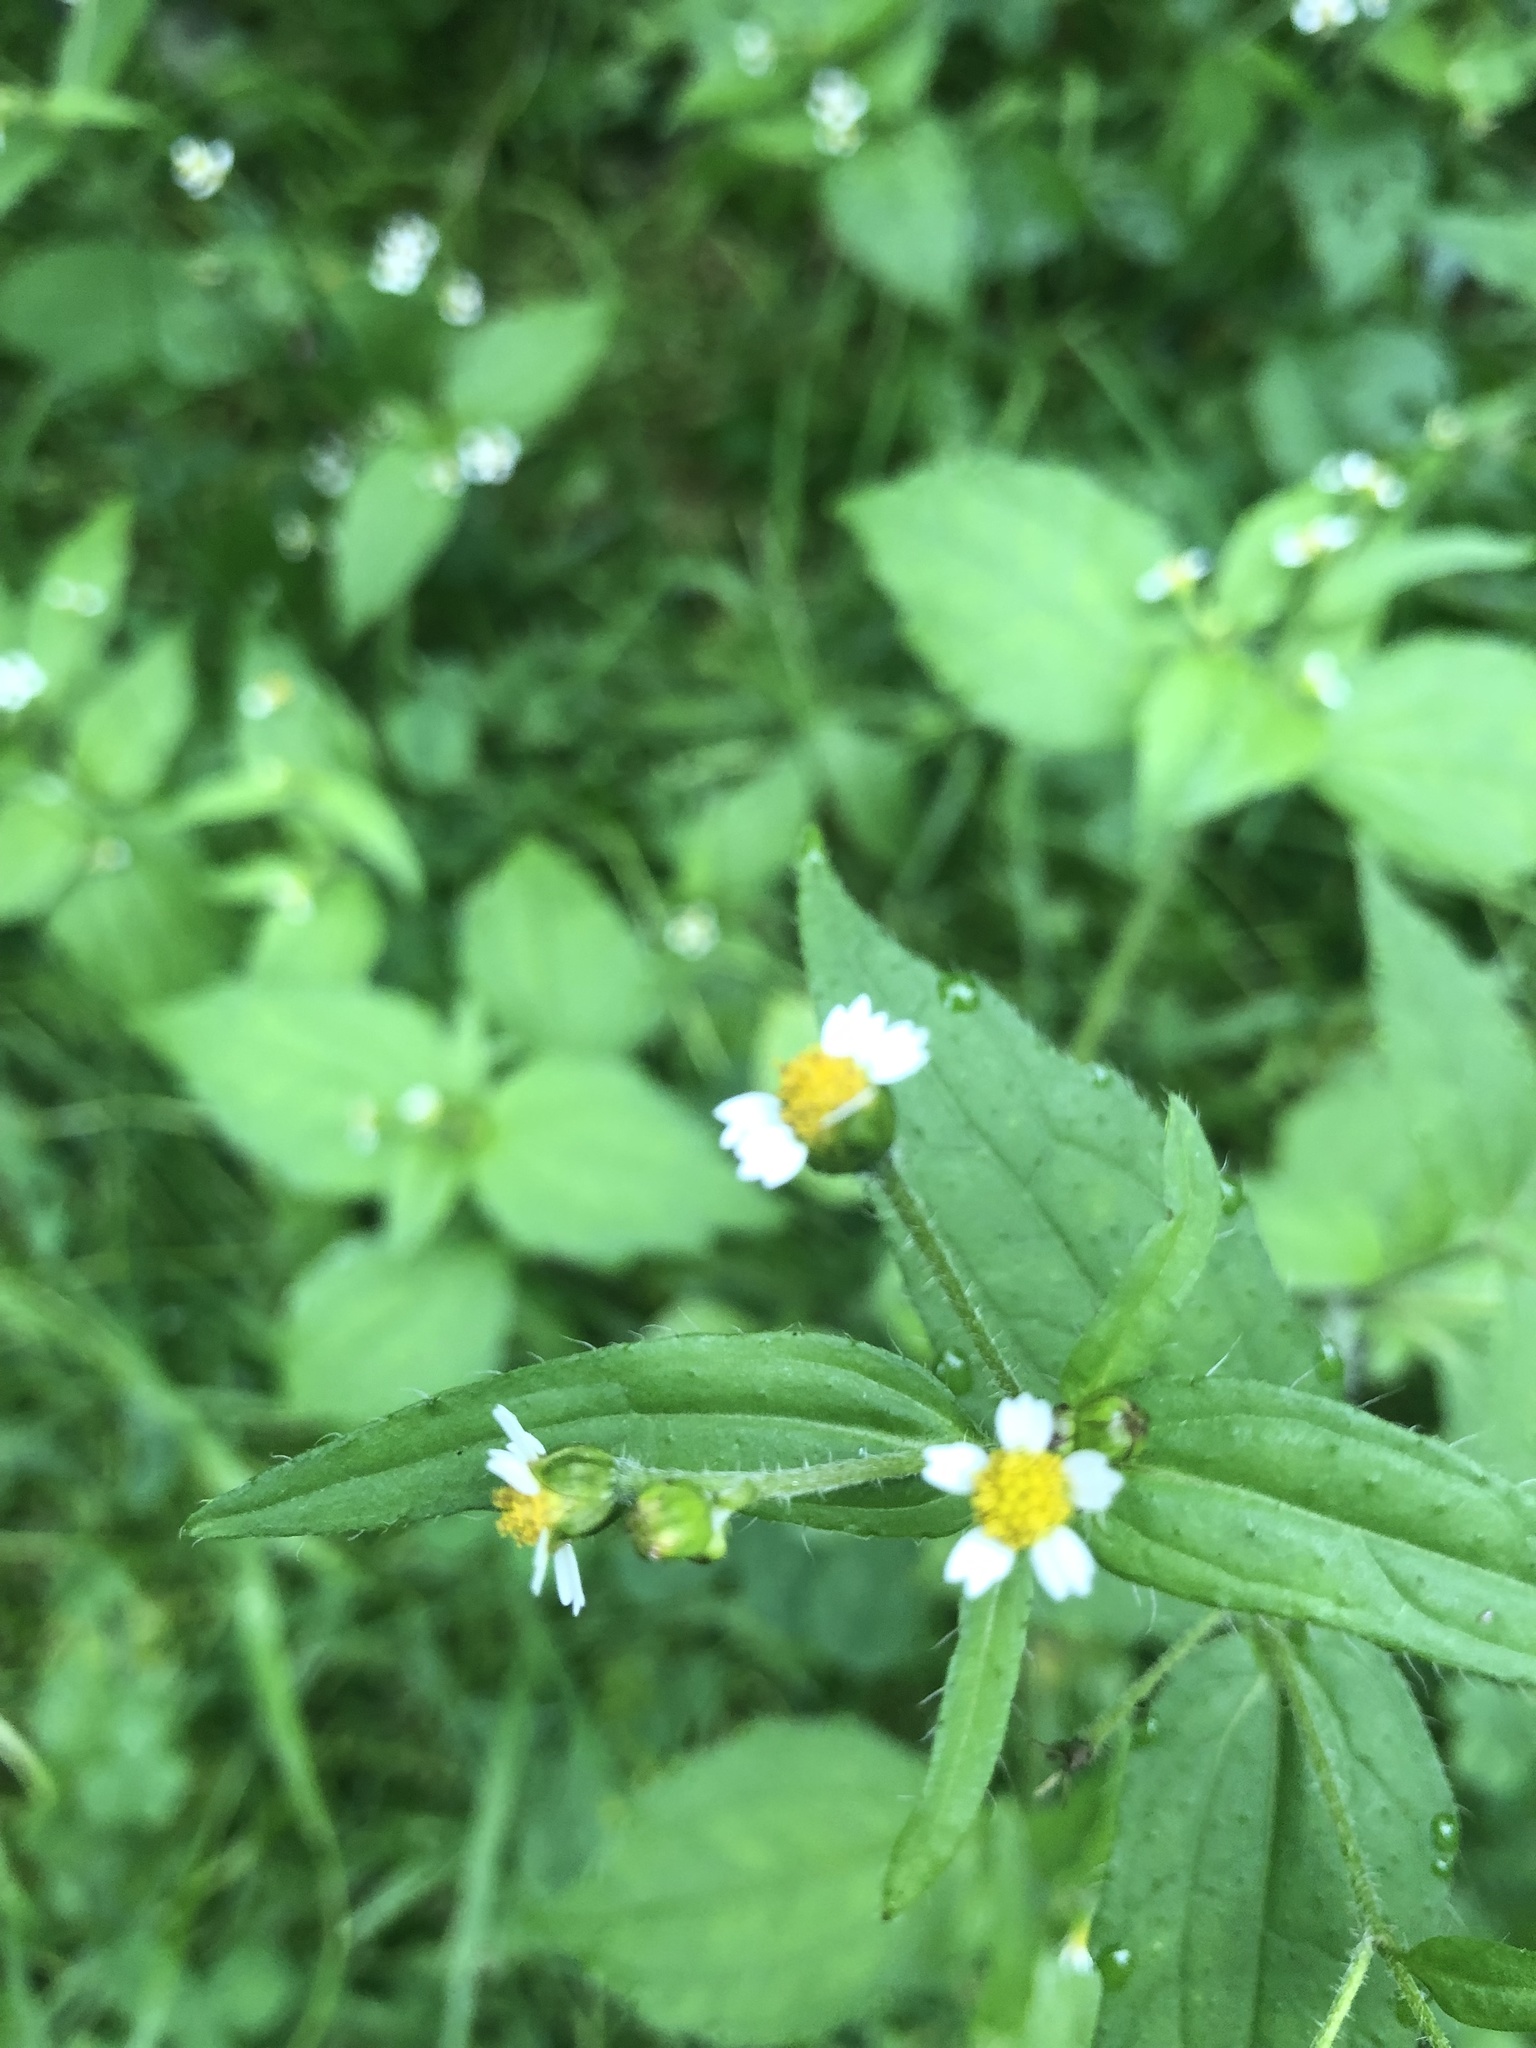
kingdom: Plantae
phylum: Tracheophyta
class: Magnoliopsida
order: Asterales
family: Asteraceae
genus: Galinsoga
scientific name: Galinsoga quadriradiata
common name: Shaggy soldier
